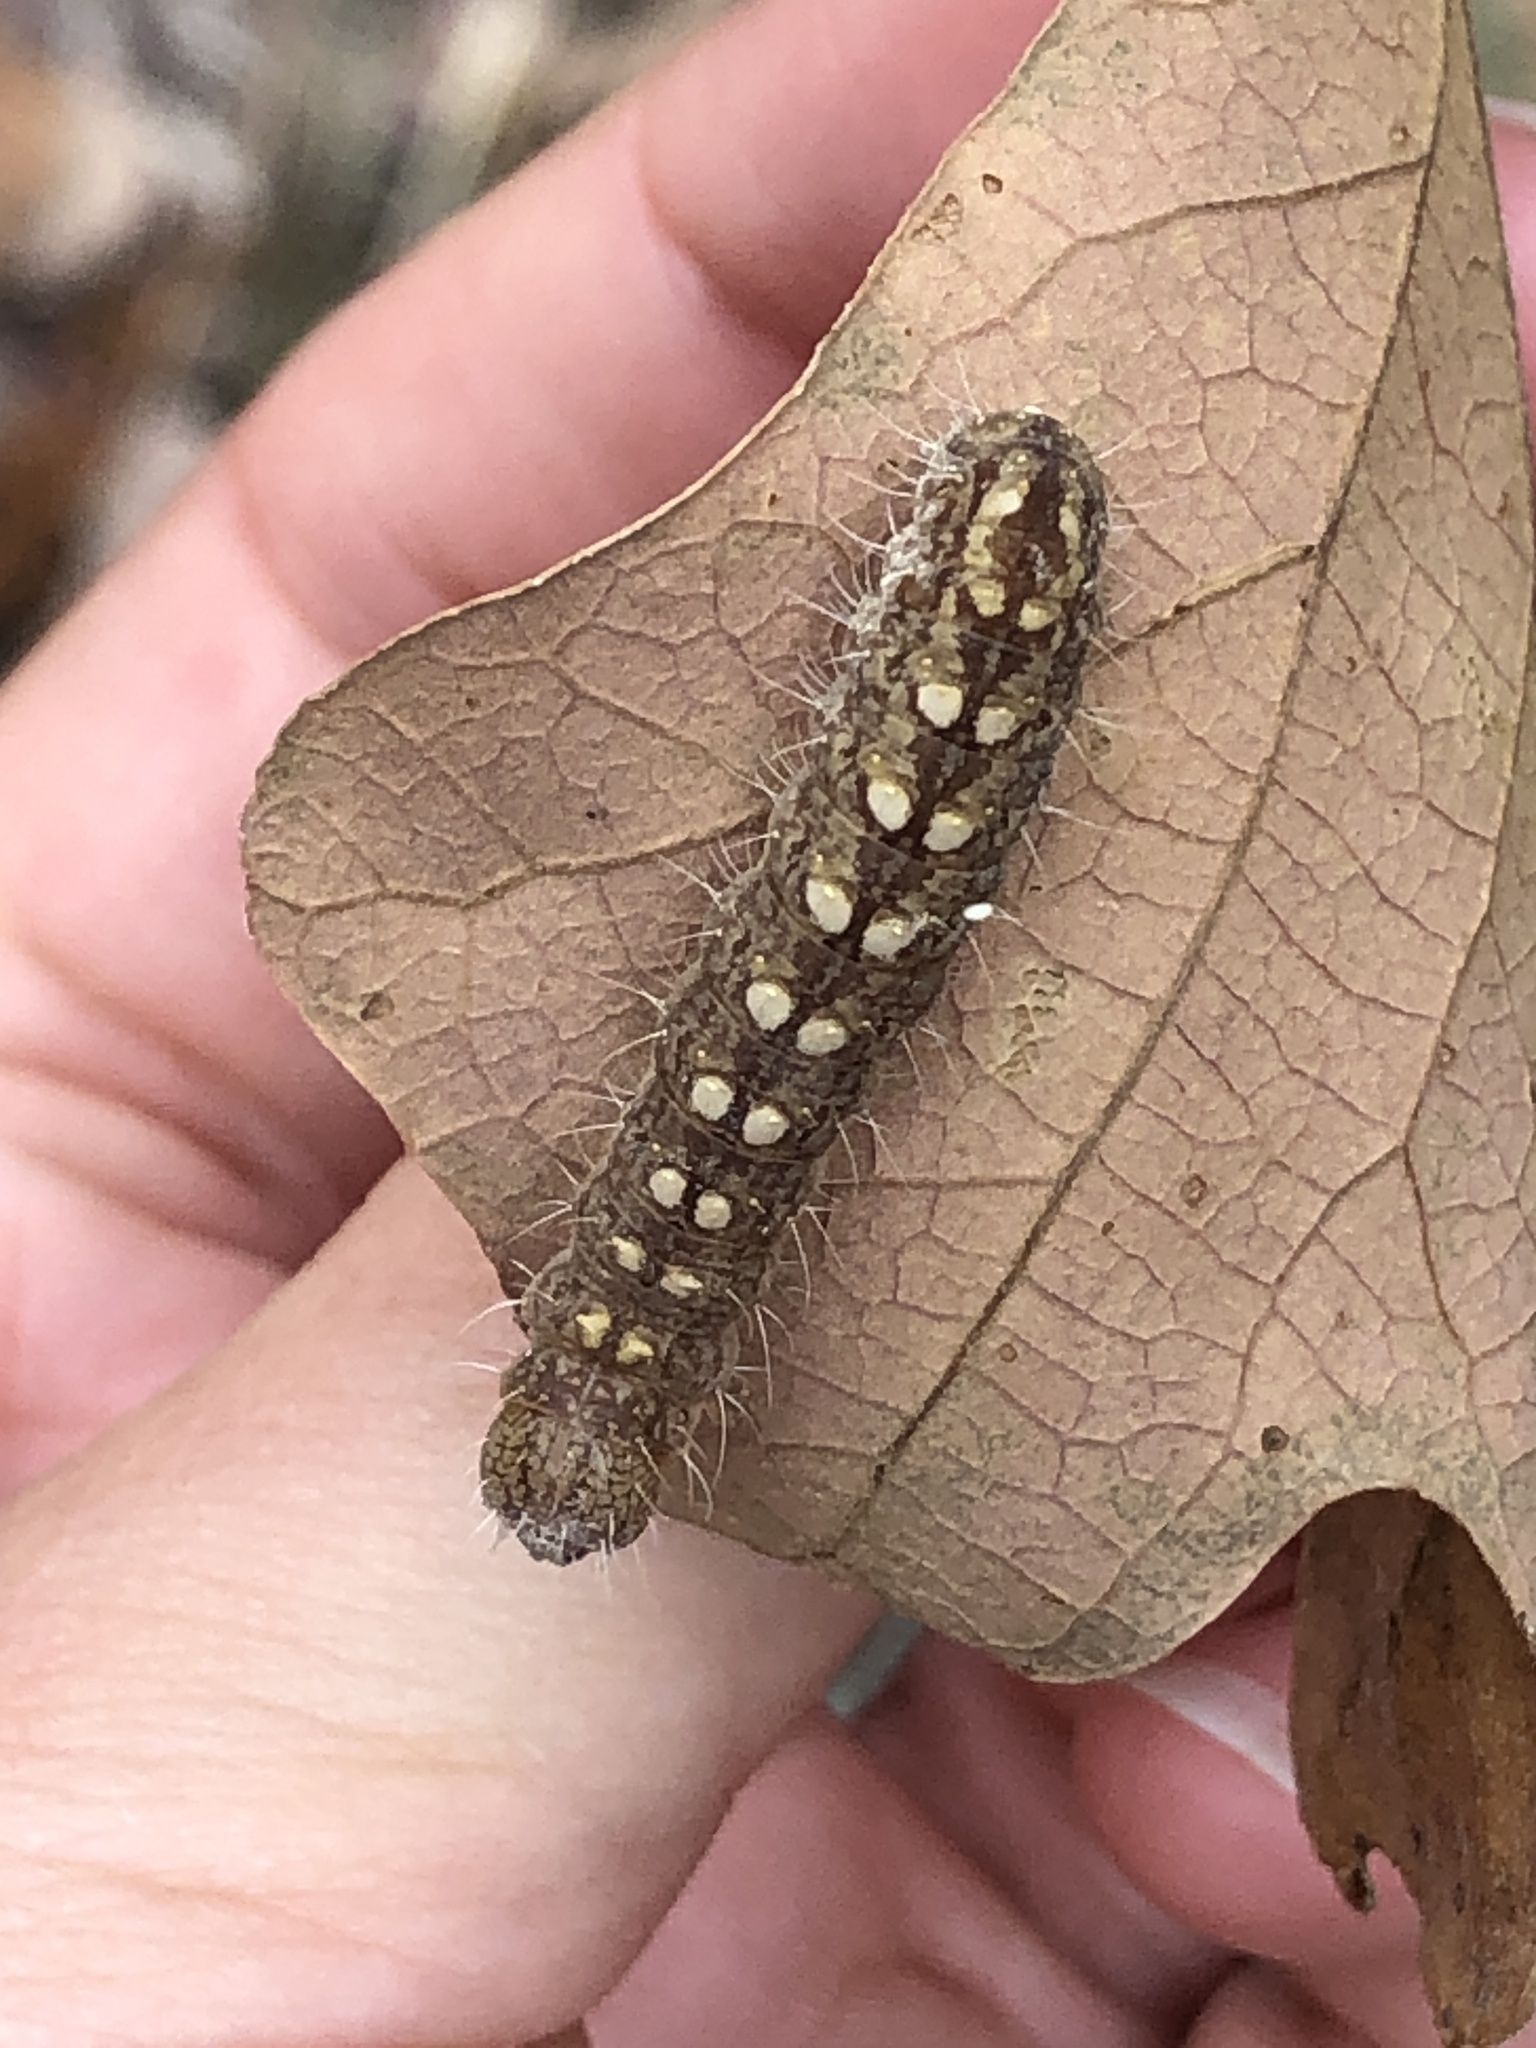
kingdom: Animalia
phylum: Arthropoda
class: Insecta
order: Lepidoptera
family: Noctuidae
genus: Acronicta
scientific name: Acronicta increta
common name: Eclipsed oak dagger
